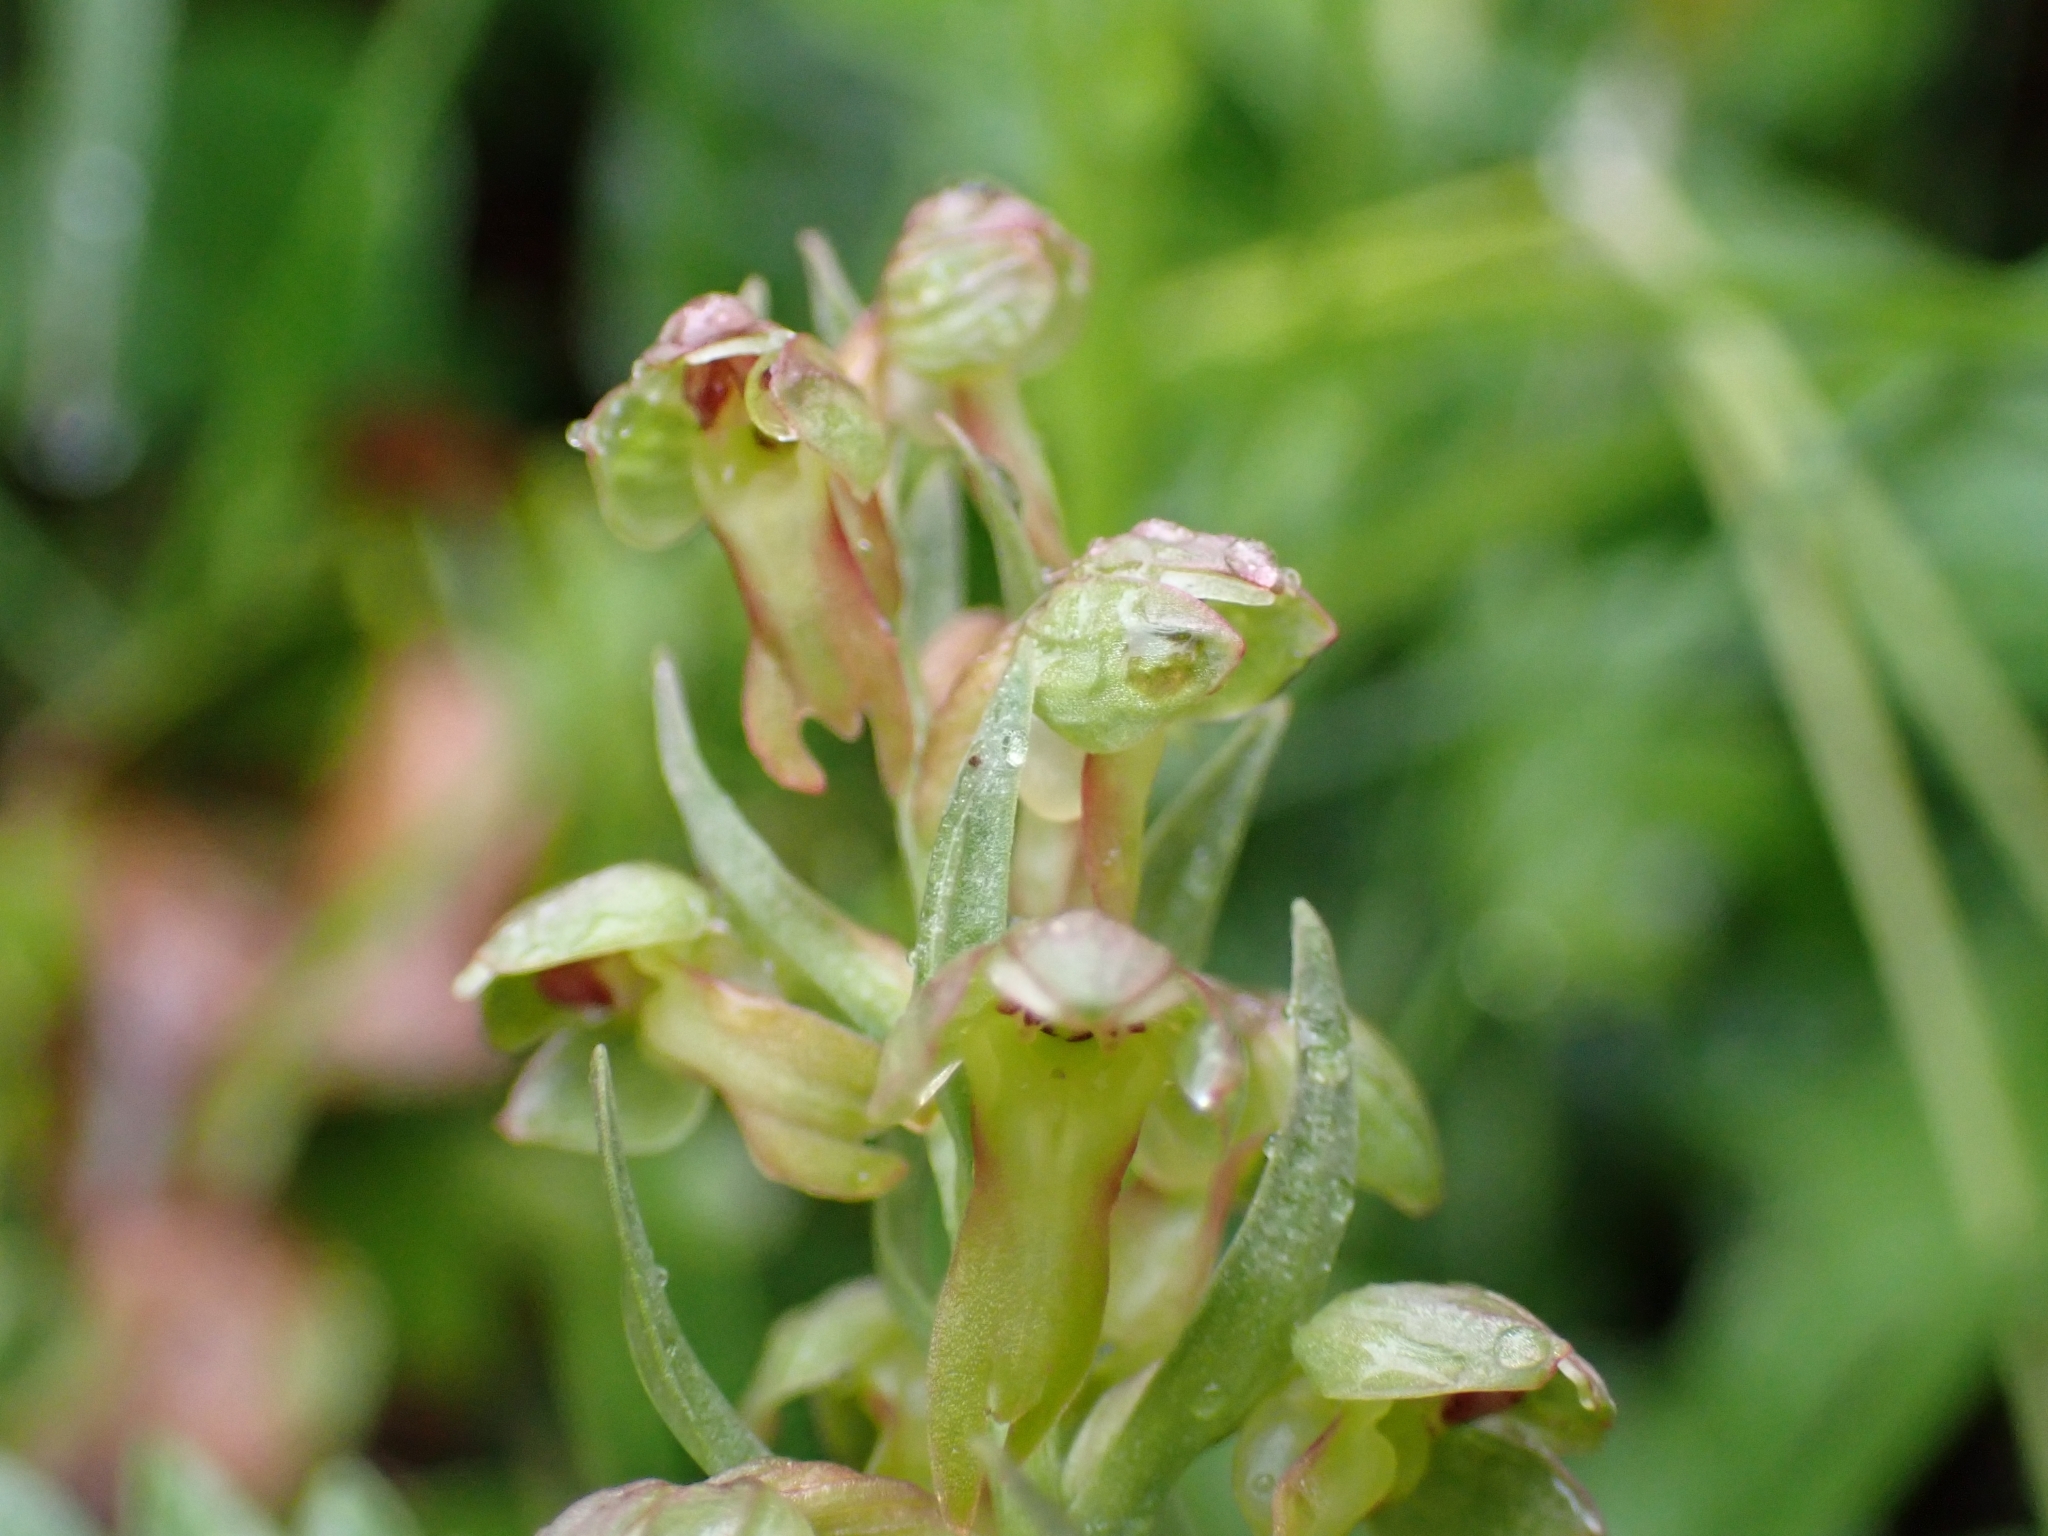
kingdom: Plantae
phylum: Tracheophyta
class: Liliopsida
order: Asparagales
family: Orchidaceae
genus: Dactylorhiza
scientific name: Dactylorhiza viridis
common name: Longbract frog orchid
